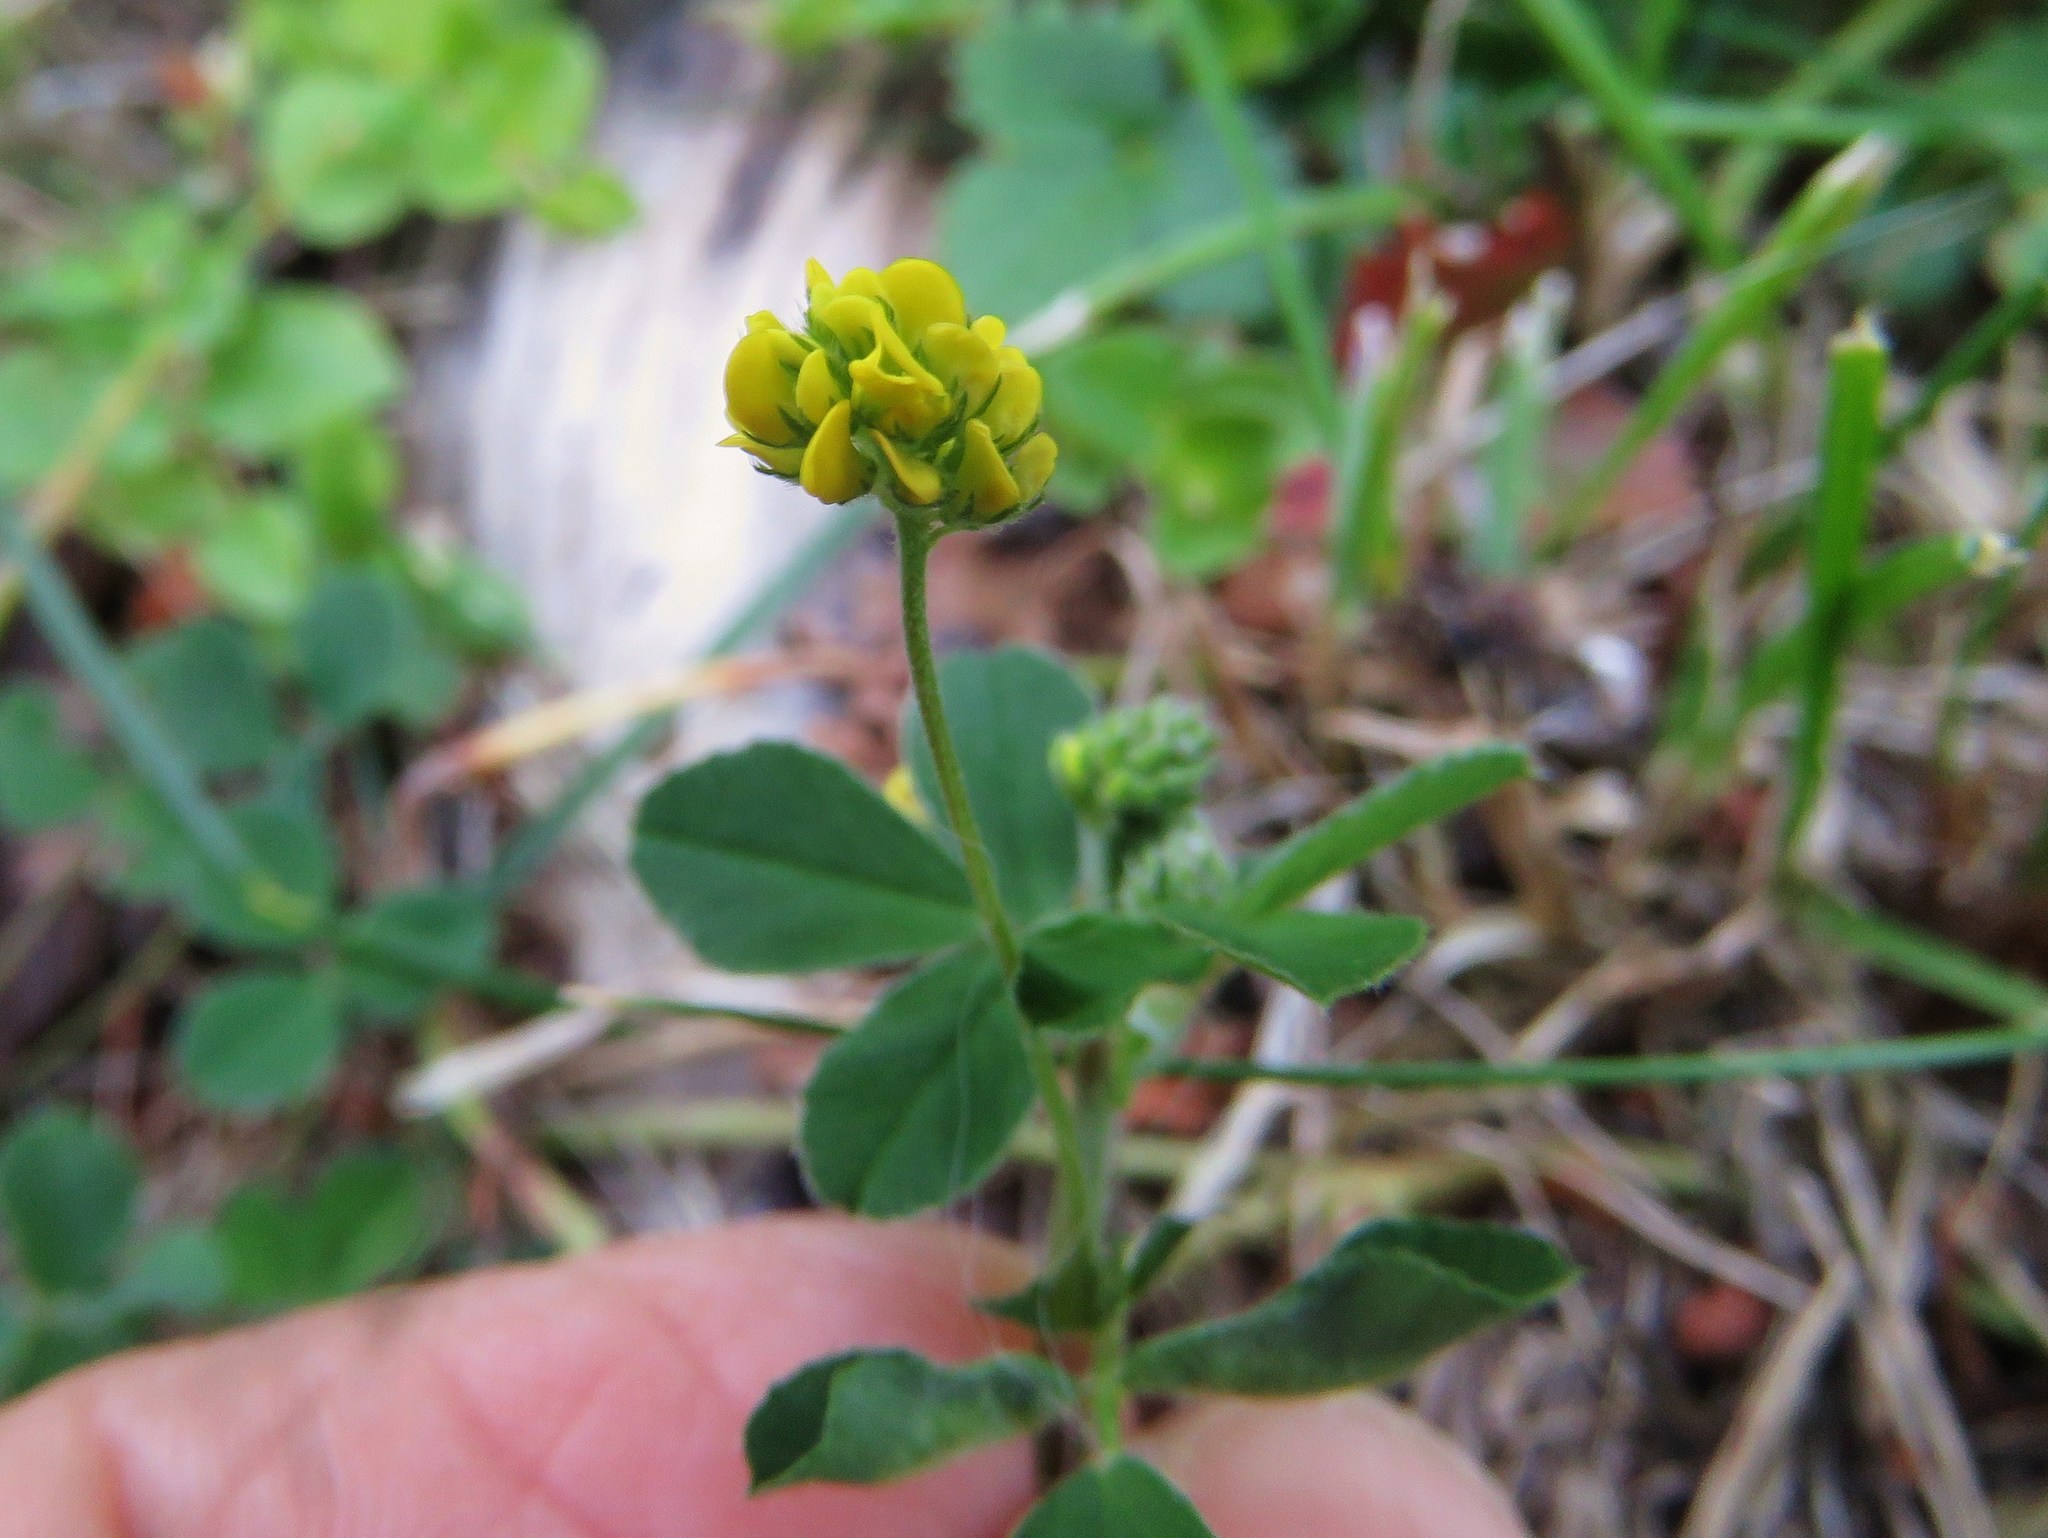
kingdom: Plantae
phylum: Tracheophyta
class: Magnoliopsida
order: Fabales
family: Fabaceae
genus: Medicago
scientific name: Medicago lupulina
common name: Black medick
